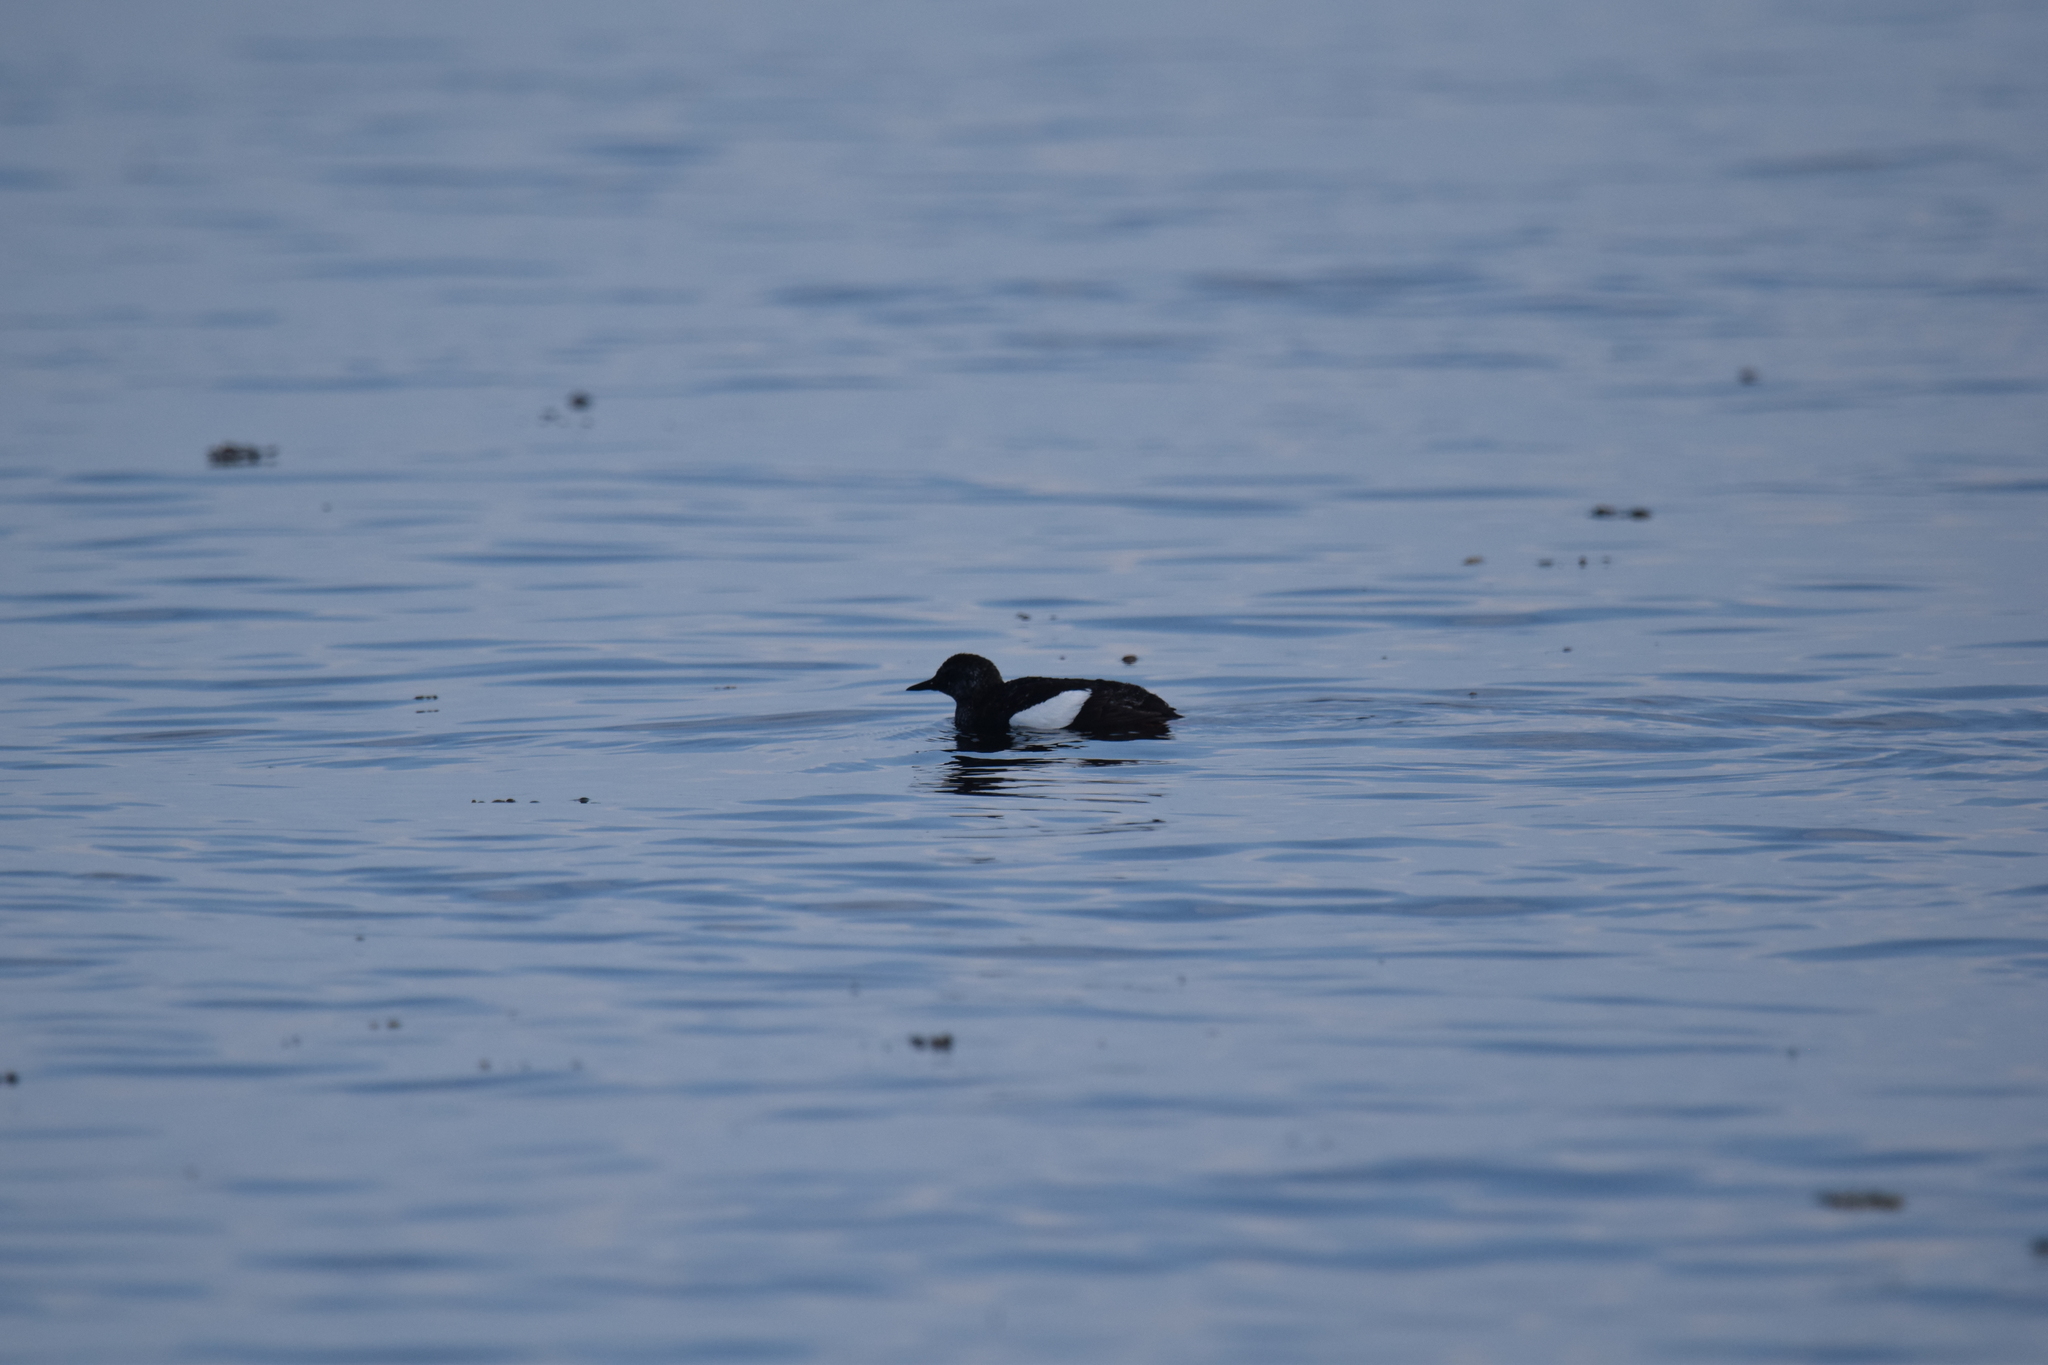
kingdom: Animalia
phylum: Chordata
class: Aves
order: Charadriiformes
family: Alcidae
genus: Cepphus
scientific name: Cepphus grylle
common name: Black guillemot
